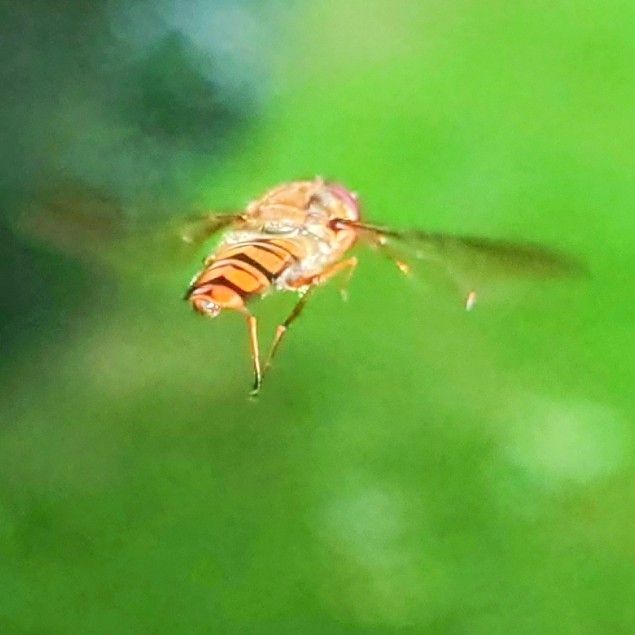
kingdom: Animalia
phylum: Arthropoda
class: Insecta
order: Diptera
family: Syrphidae
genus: Episyrphus
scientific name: Episyrphus balteatus
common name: Marmalade hoverfly
